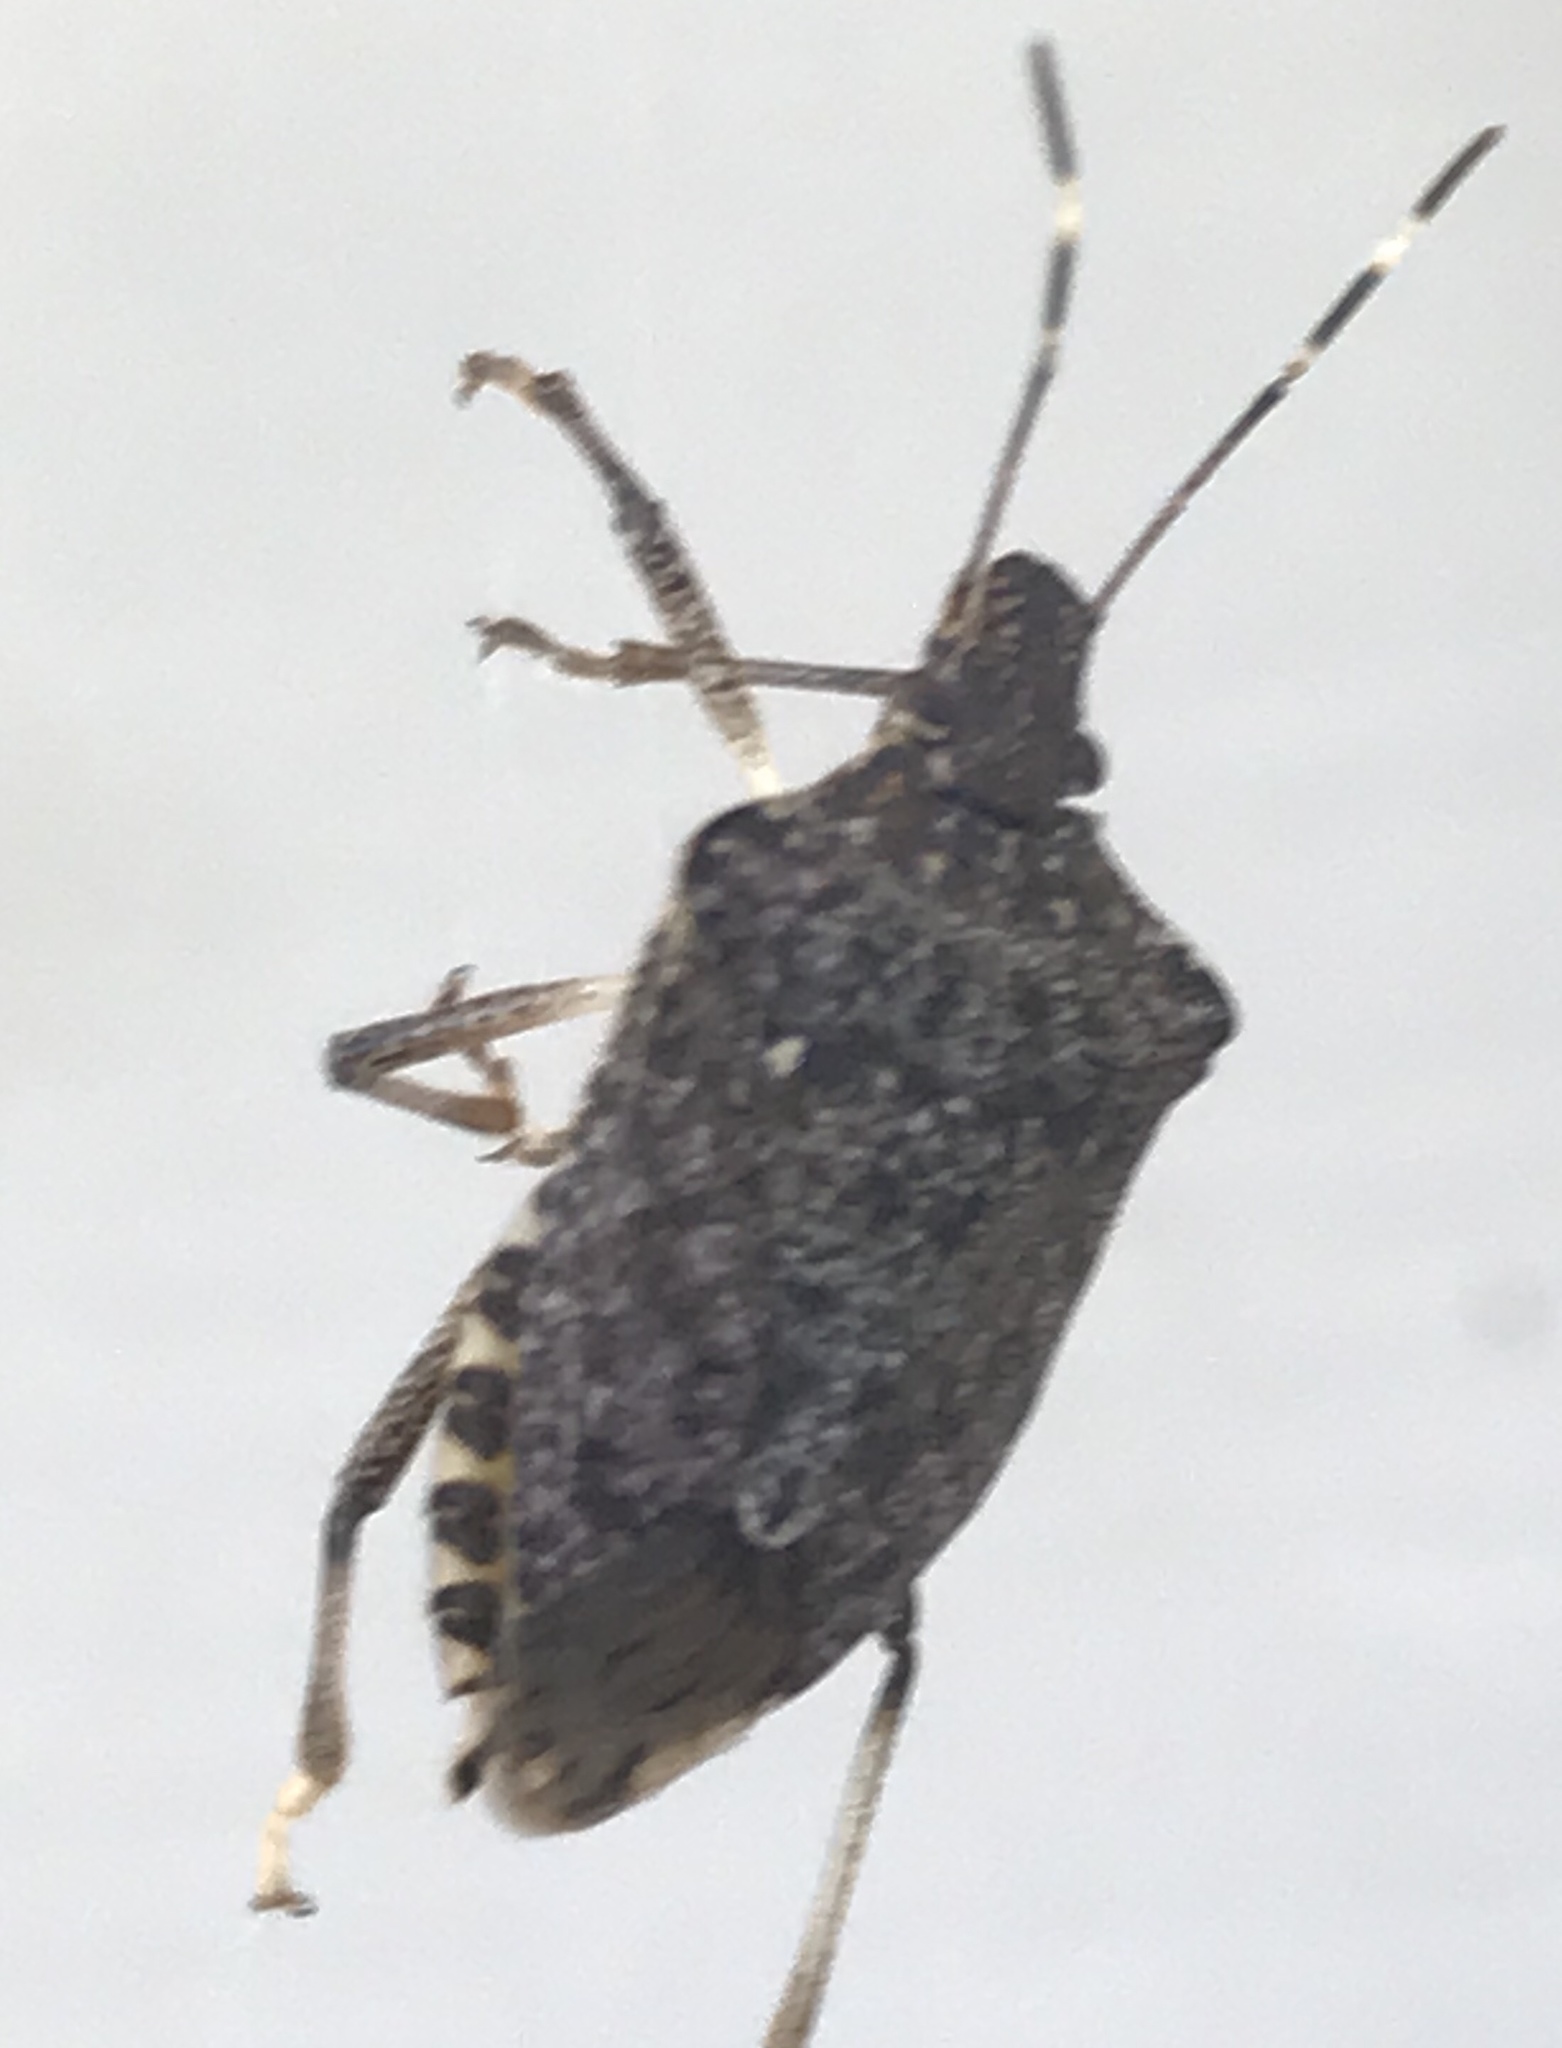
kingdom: Animalia
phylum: Arthropoda
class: Insecta
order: Hemiptera
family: Pentatomidae
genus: Halyomorpha
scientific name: Halyomorpha halys
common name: Brown marmorated stink bug
